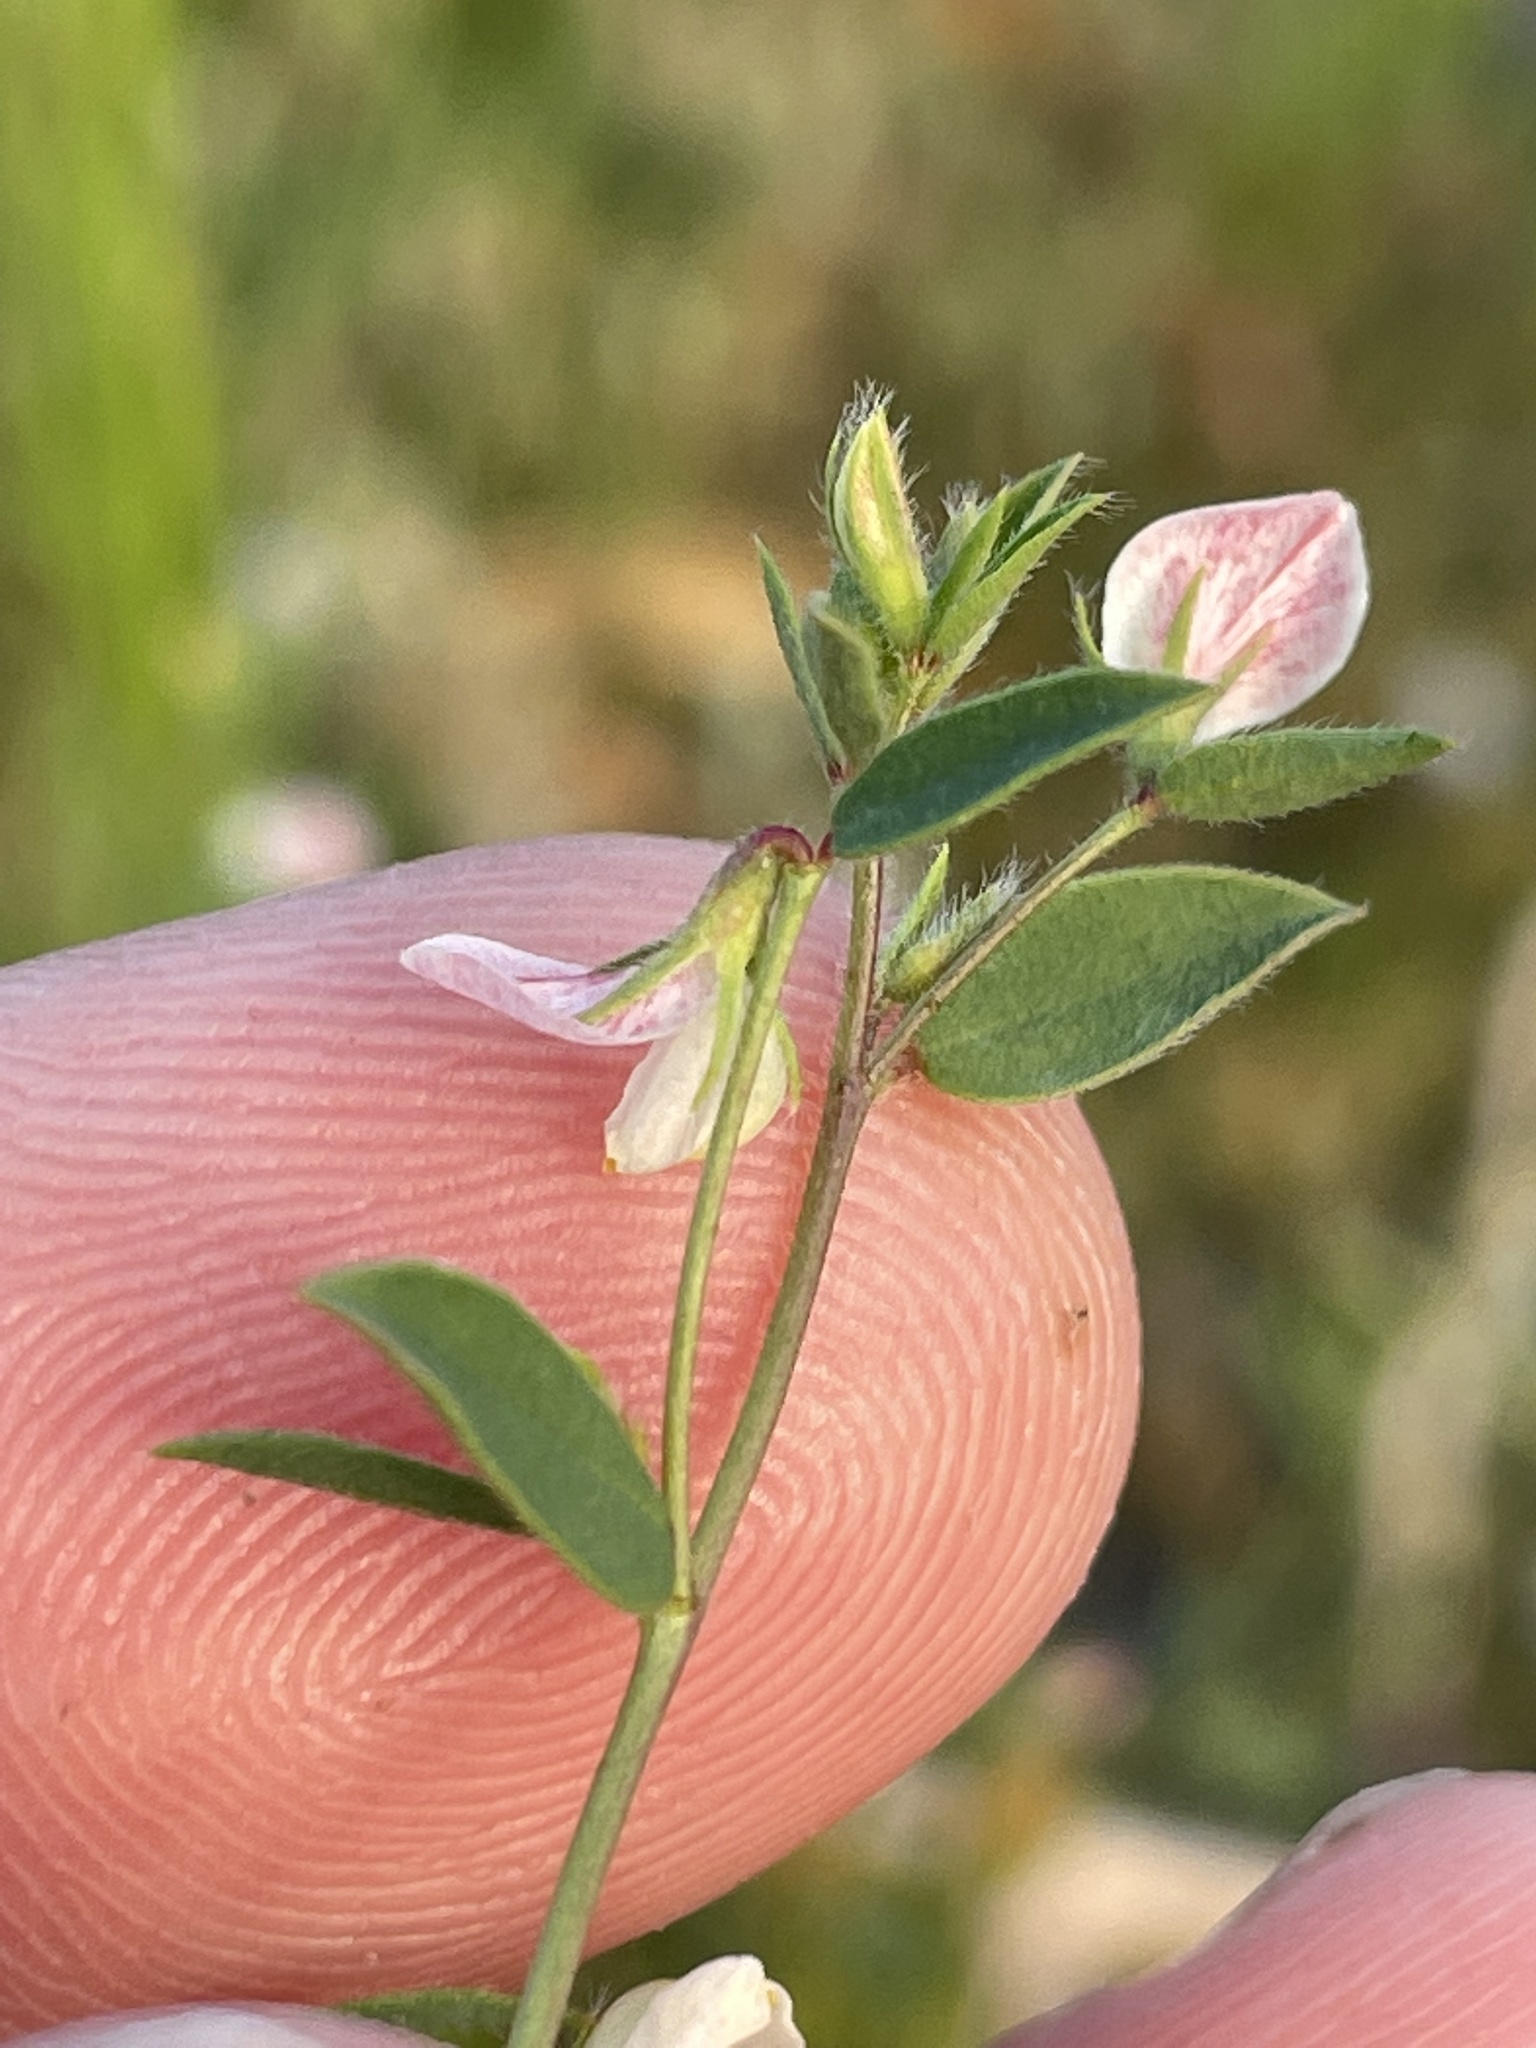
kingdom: Plantae
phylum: Tracheophyta
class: Magnoliopsida
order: Fabales
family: Fabaceae
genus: Acmispon
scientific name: Acmispon americanus
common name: American bird's-foot trefoil
